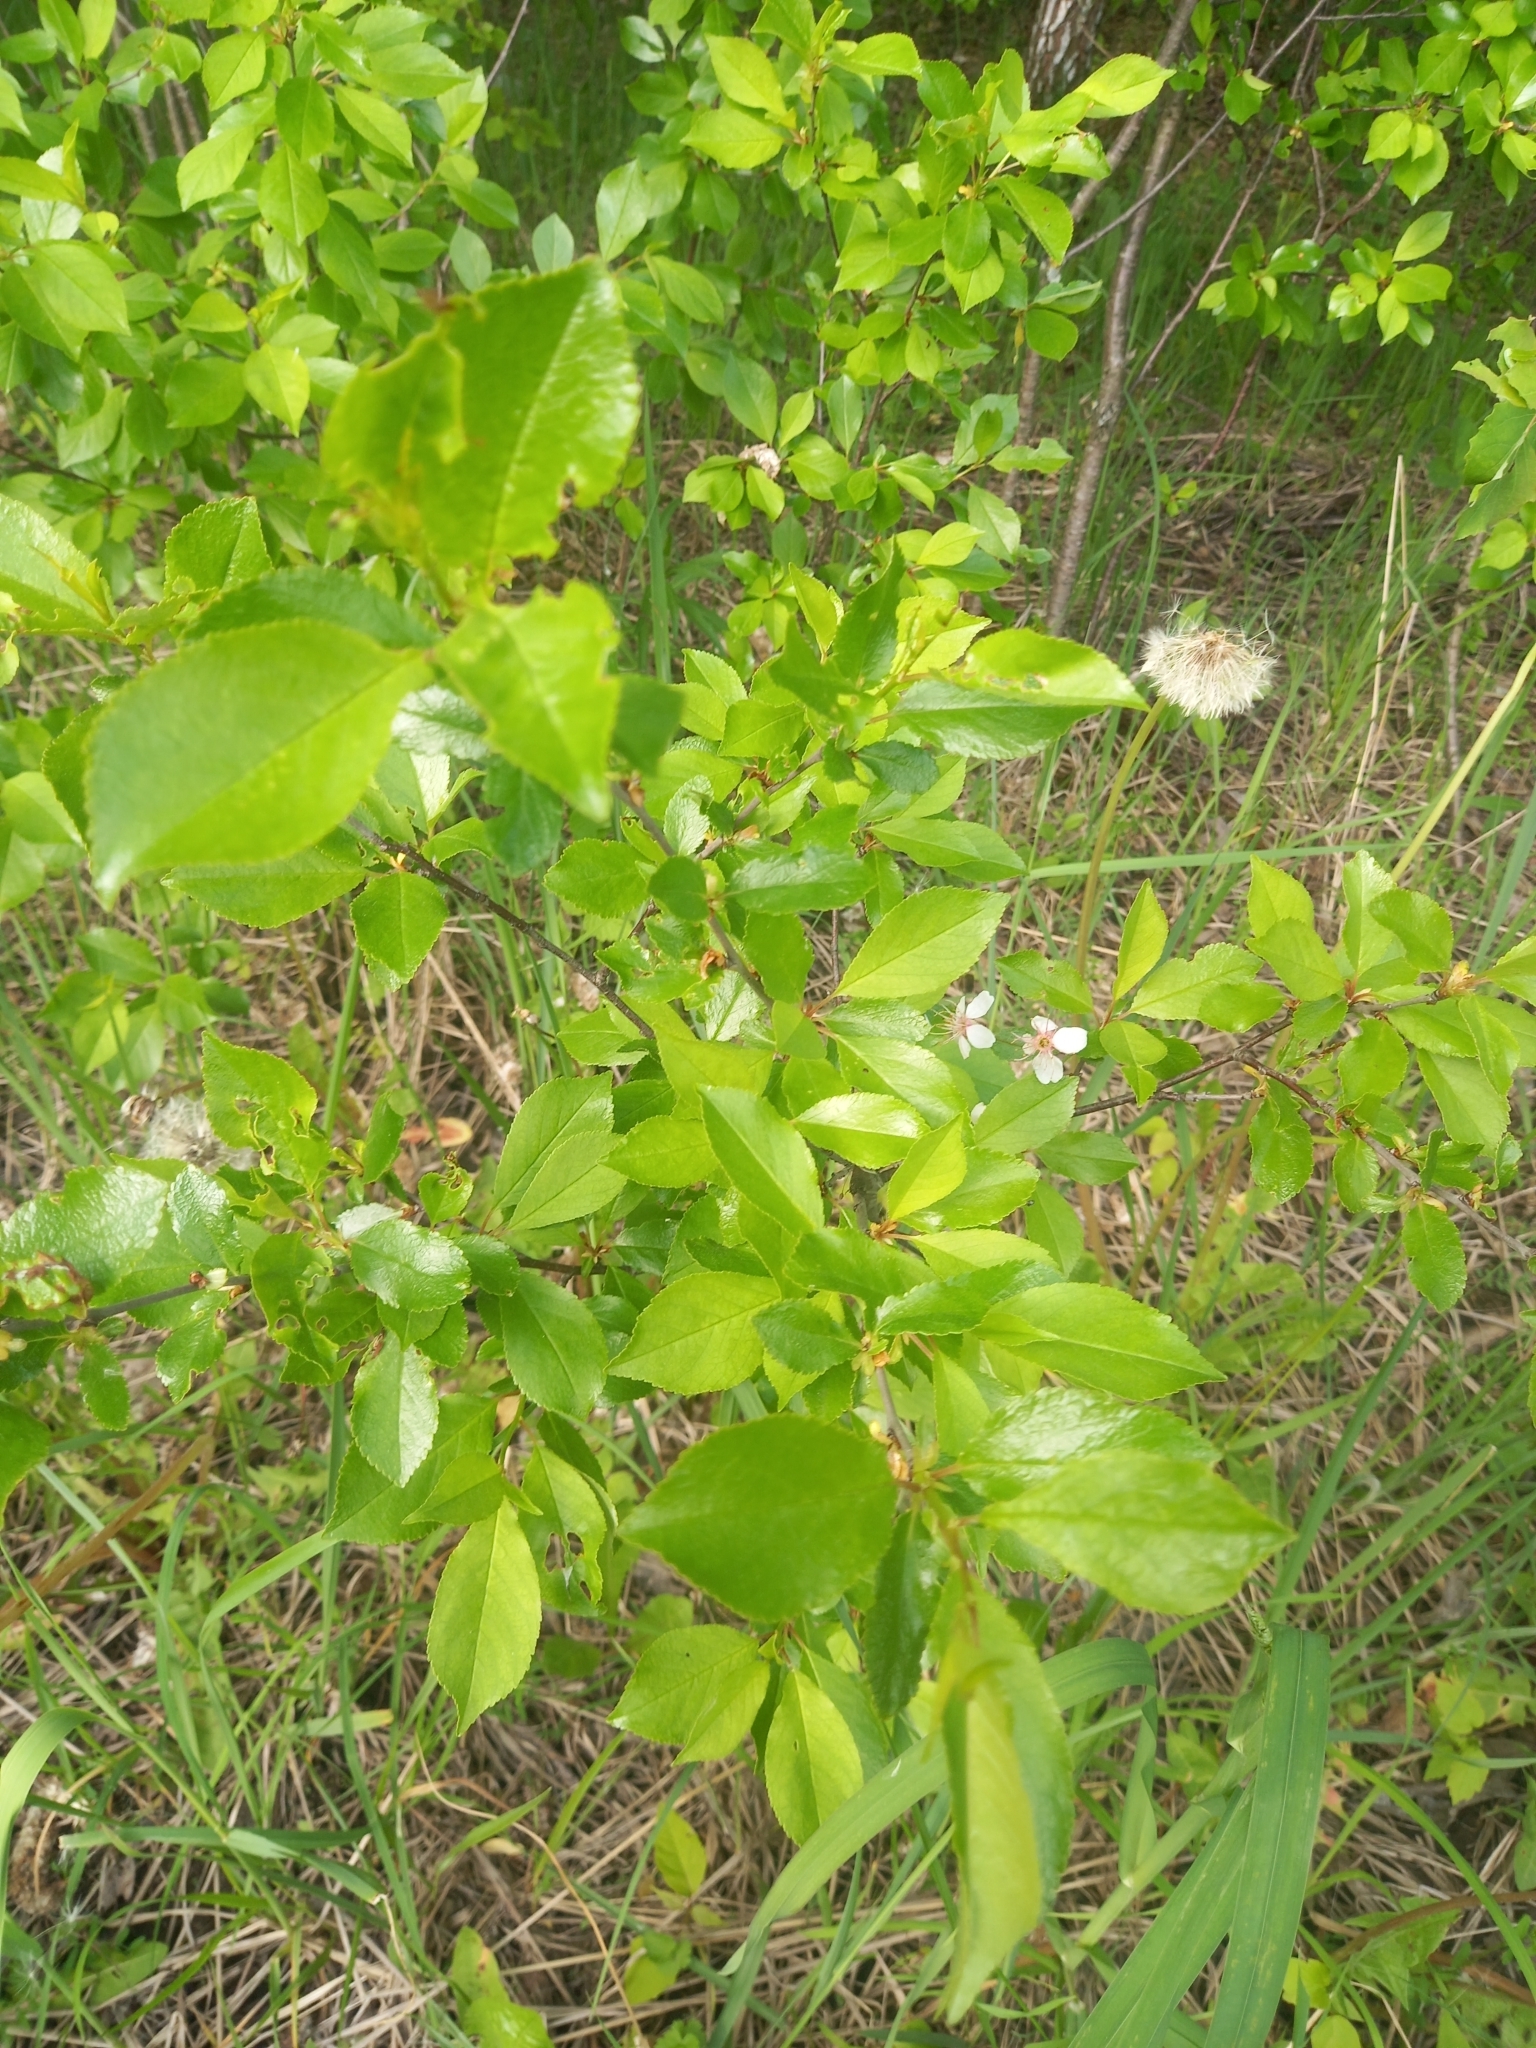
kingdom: Plantae
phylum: Tracheophyta
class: Magnoliopsida
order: Rosales
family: Rosaceae
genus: Prunus
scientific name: Prunus cerasus
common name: Morello cherry
